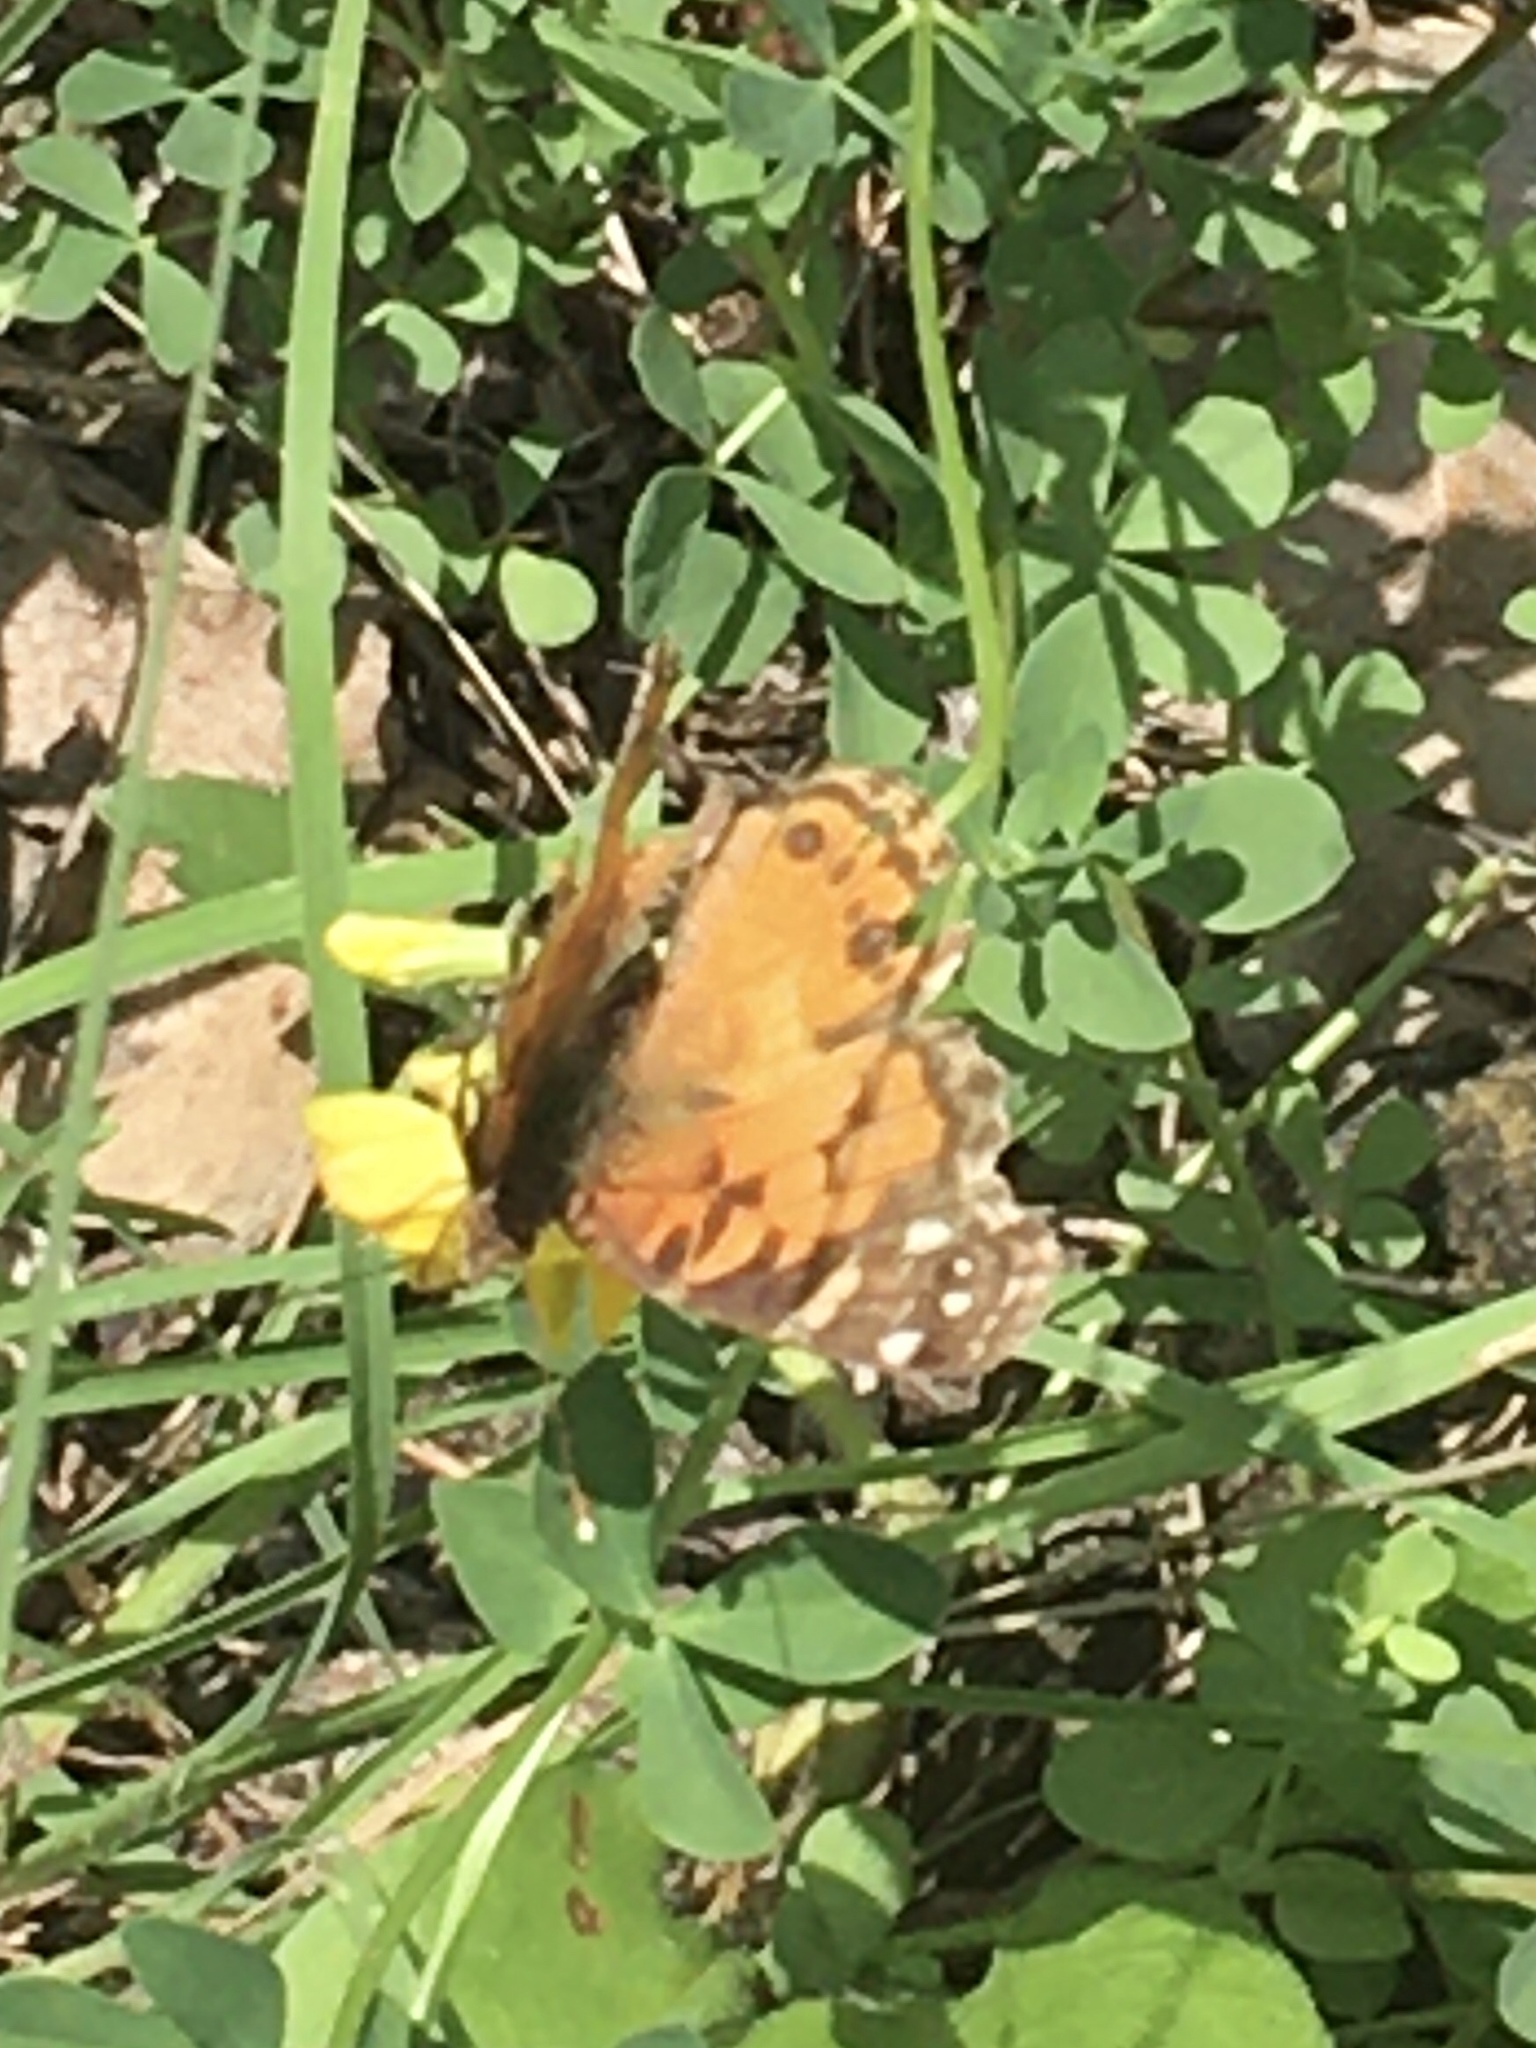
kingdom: Animalia
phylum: Arthropoda
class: Insecta
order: Lepidoptera
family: Nymphalidae
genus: Vanessa
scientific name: Vanessa virginiensis
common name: American lady
